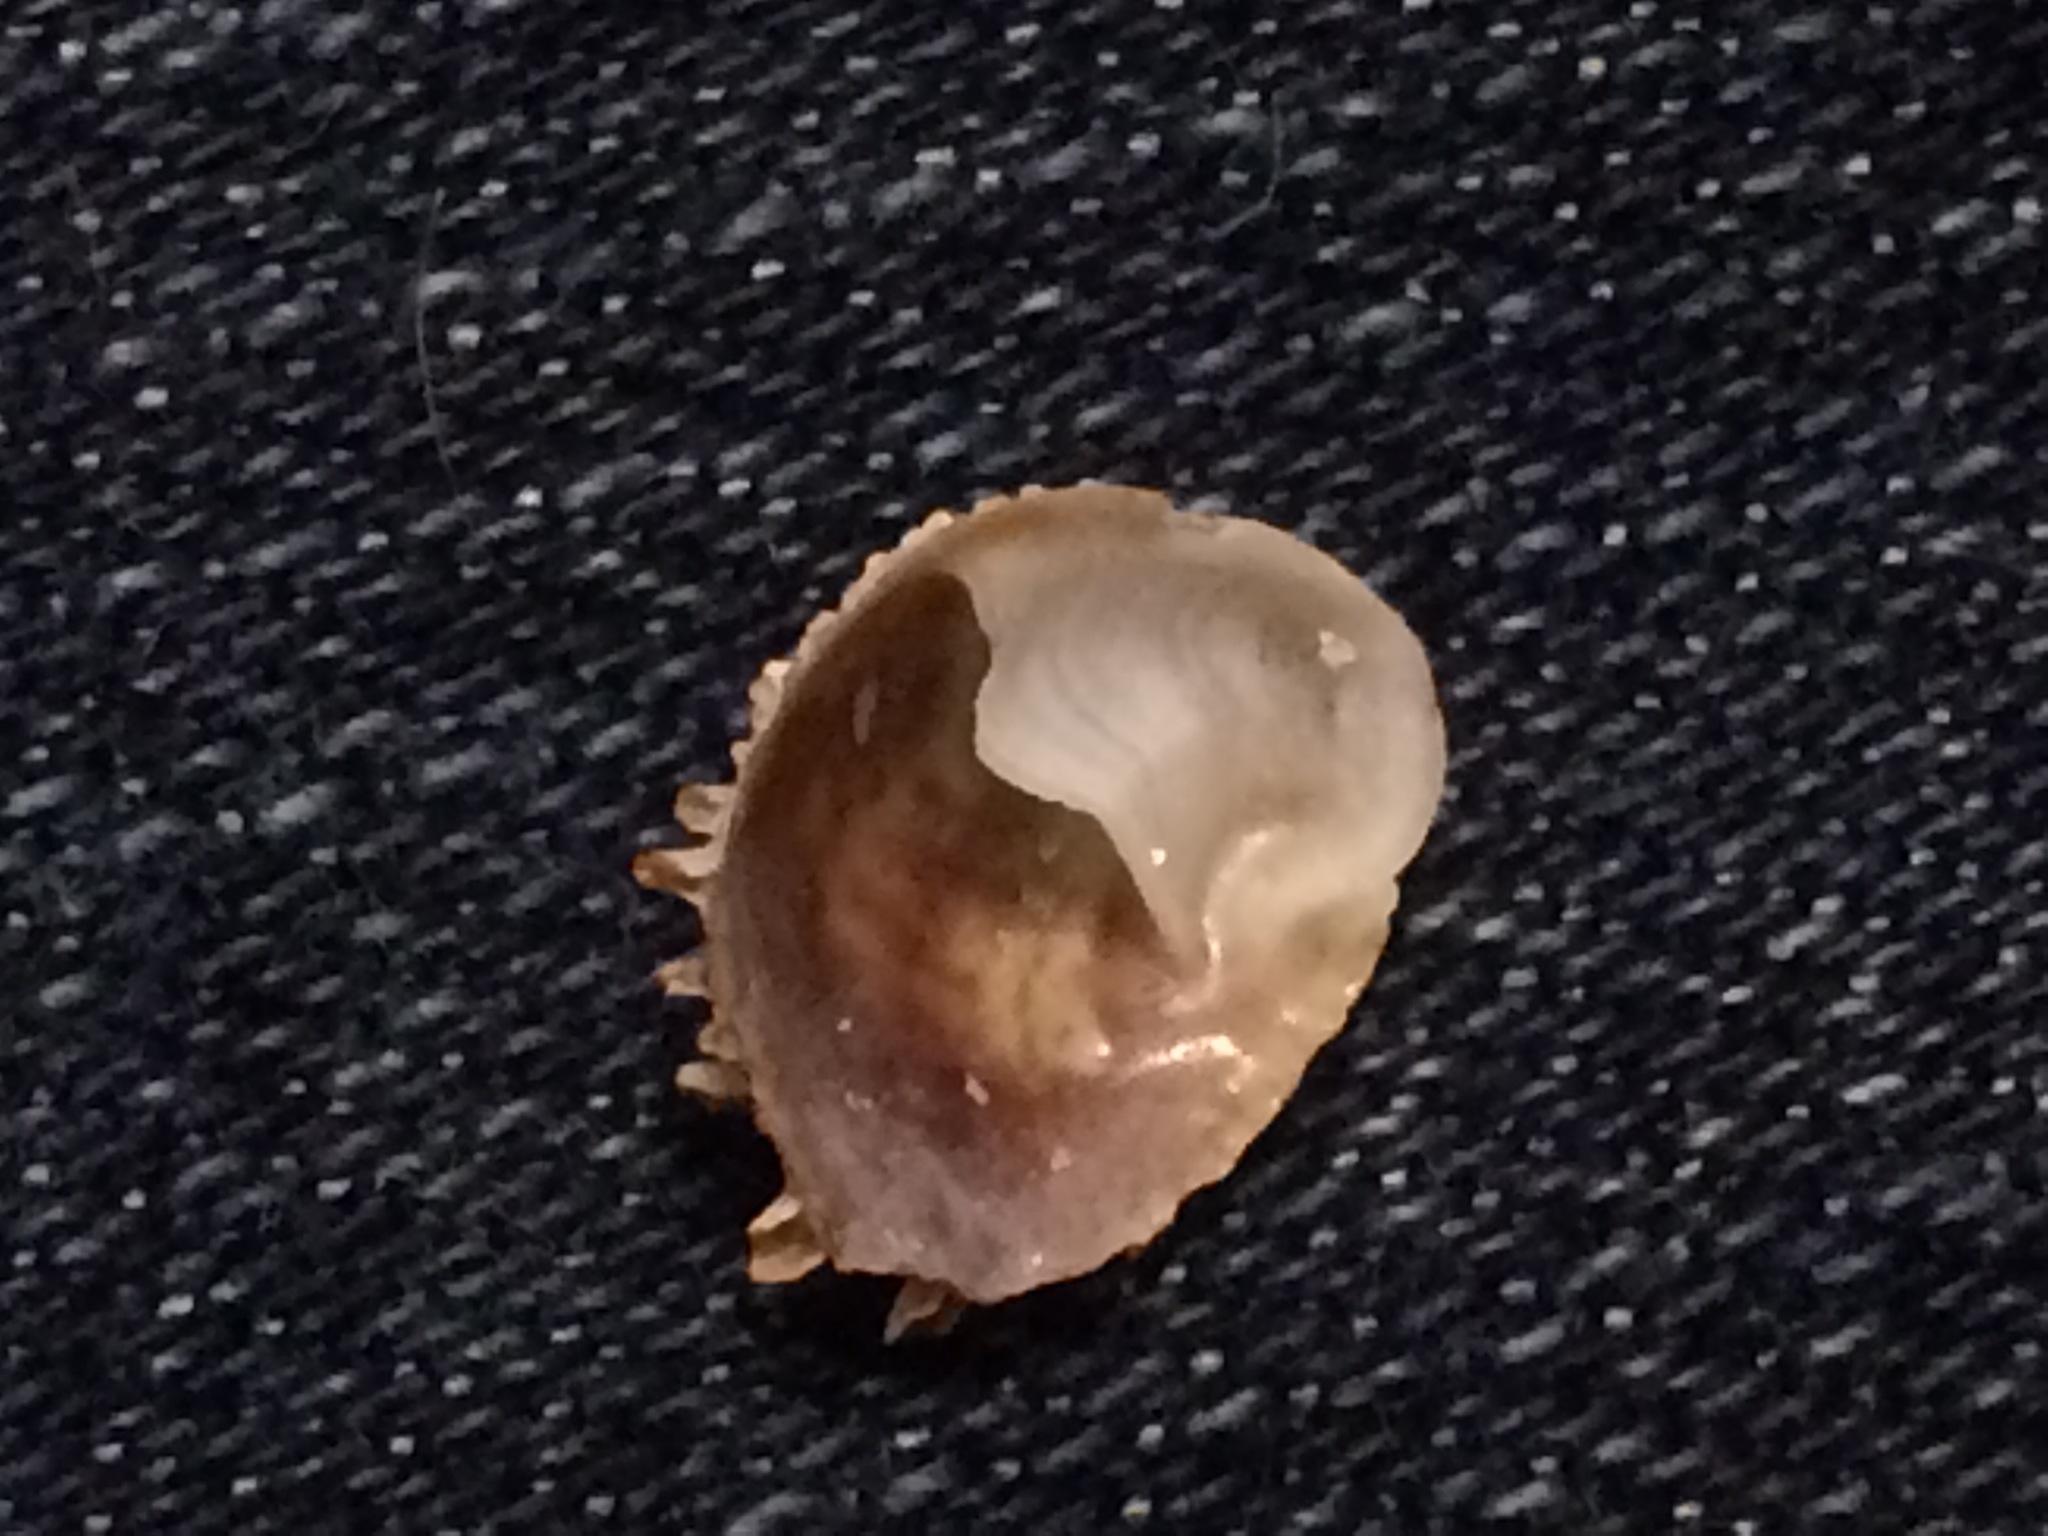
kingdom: Animalia
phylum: Mollusca
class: Gastropoda
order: Littorinimorpha
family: Calyptraeidae
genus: Bostrycapulus
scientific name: Bostrycapulus aculeatus
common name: Spiny slippersnail
